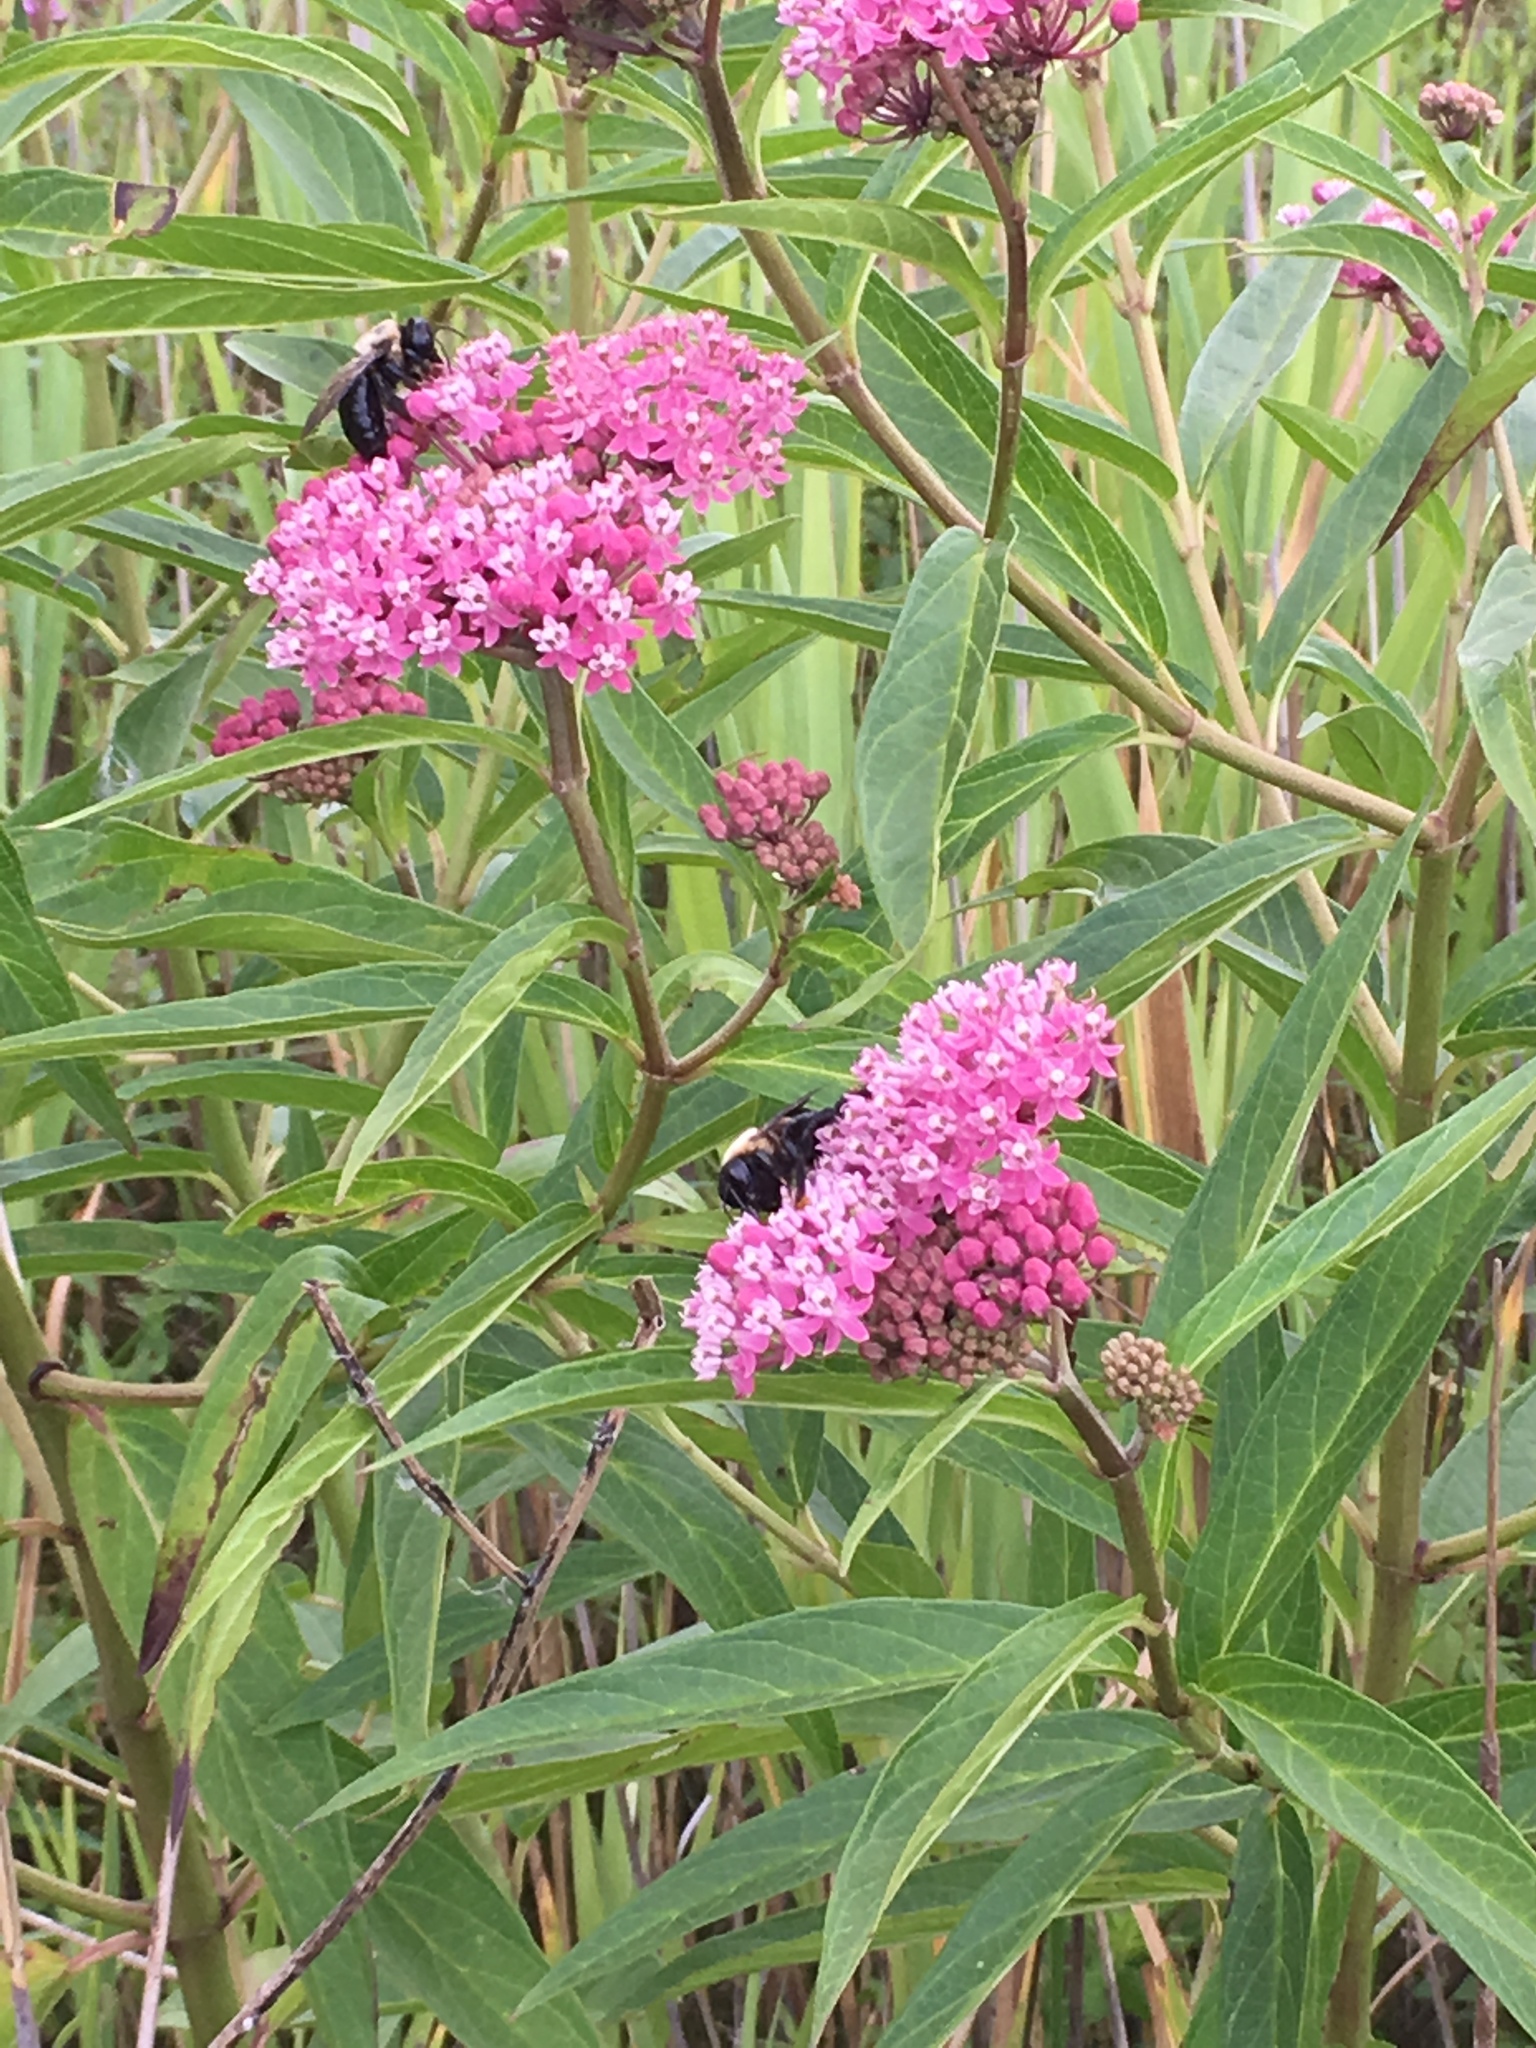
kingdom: Animalia
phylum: Arthropoda
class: Insecta
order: Hymenoptera
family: Apidae
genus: Xylocopa
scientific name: Xylocopa virginica
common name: Carpenter bee
